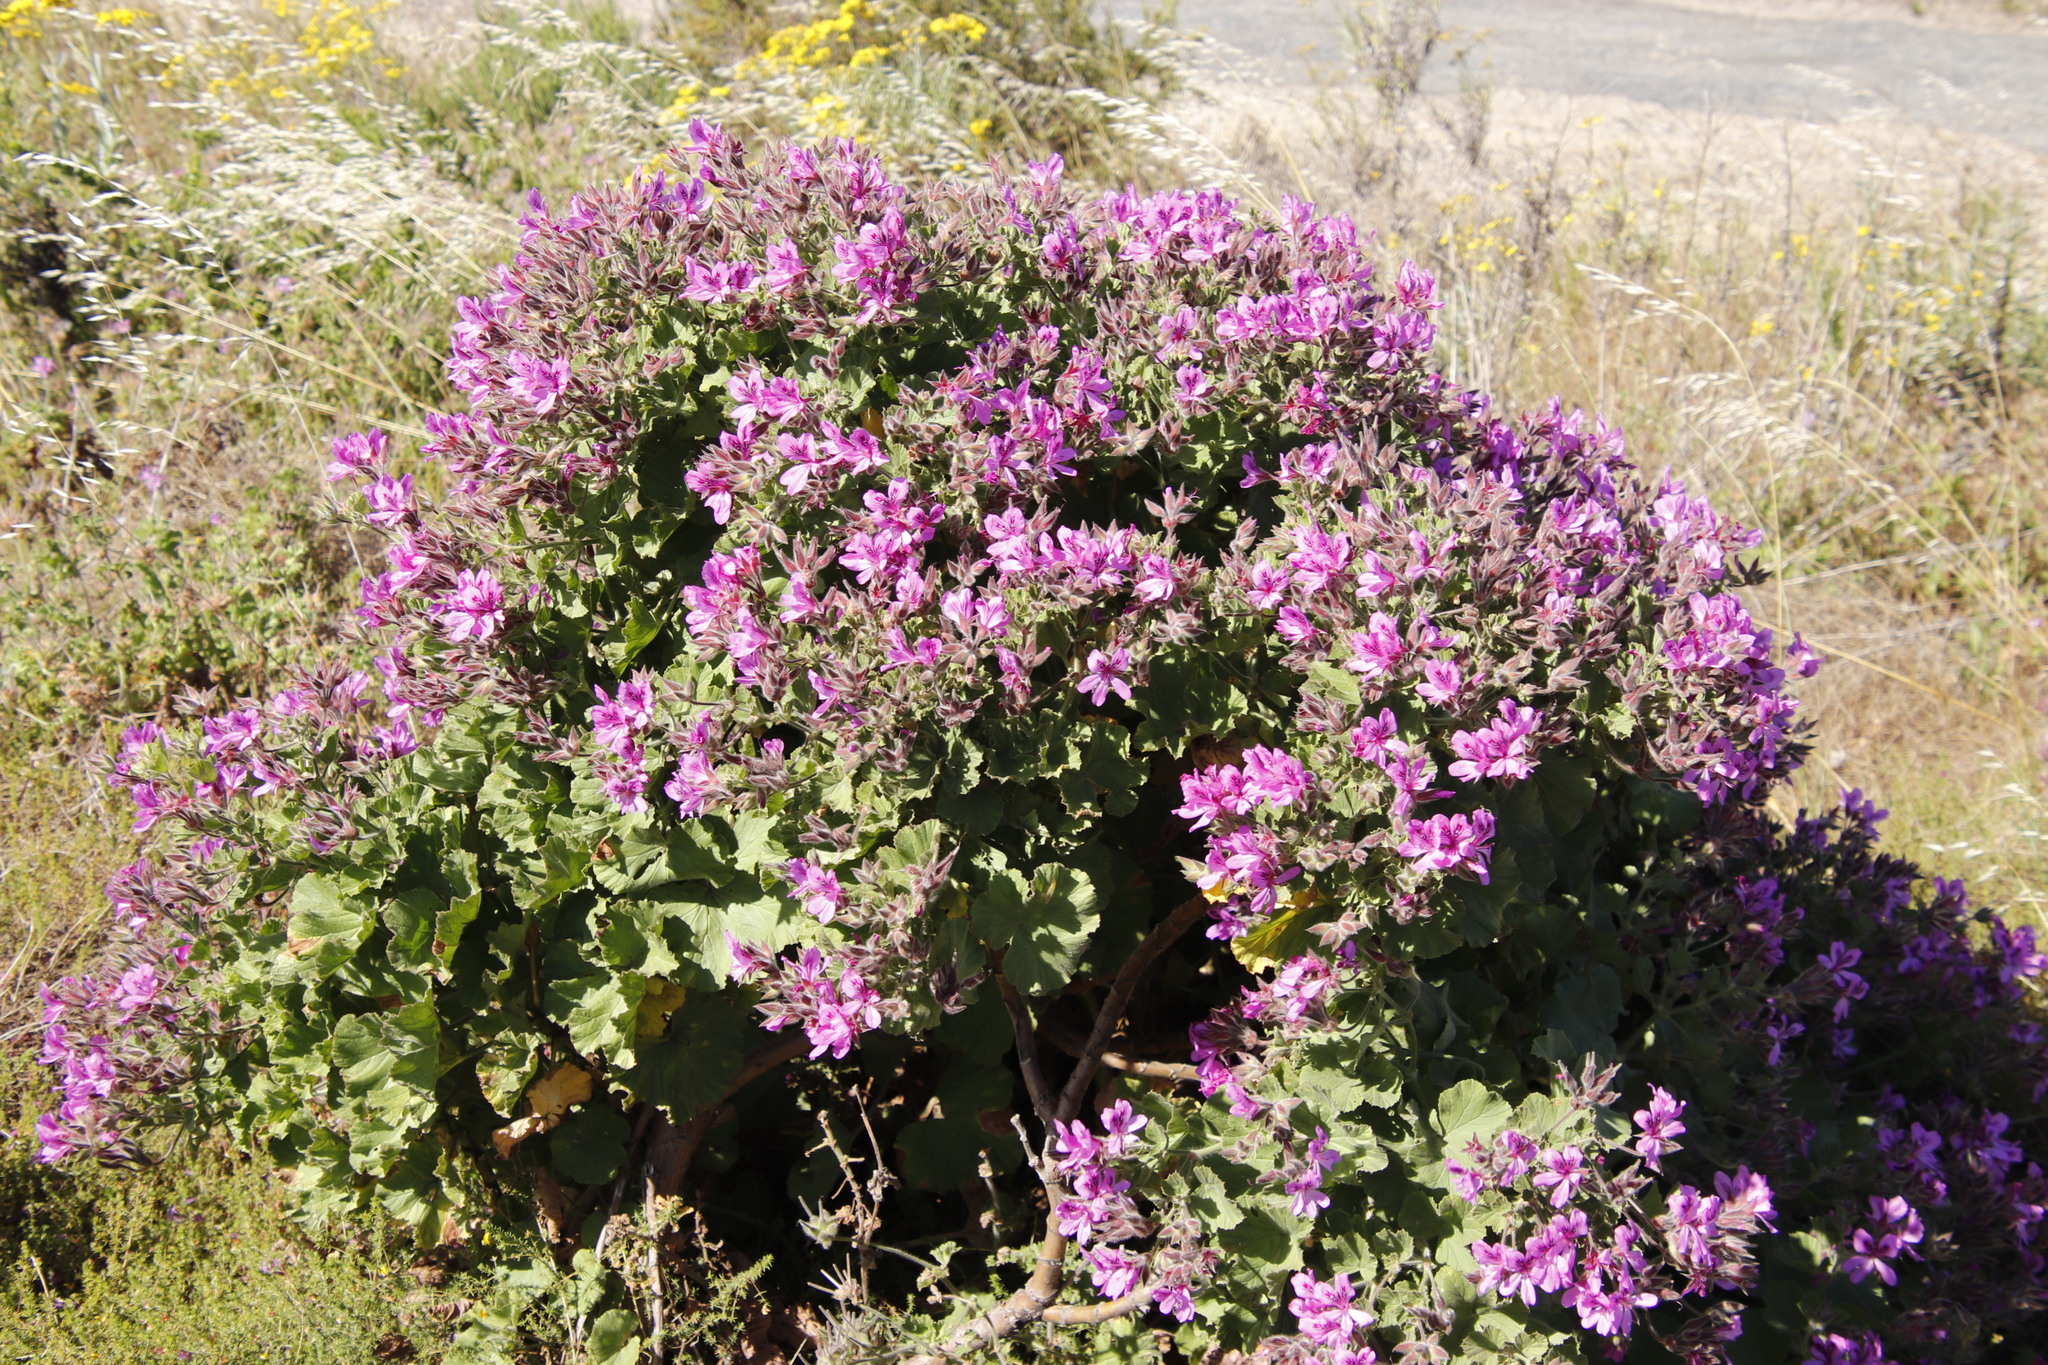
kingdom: Plantae
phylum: Tracheophyta
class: Magnoliopsida
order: Geraniales
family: Geraniaceae
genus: Pelargonium
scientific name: Pelargonium cucullatum
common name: Tree pelargonium
